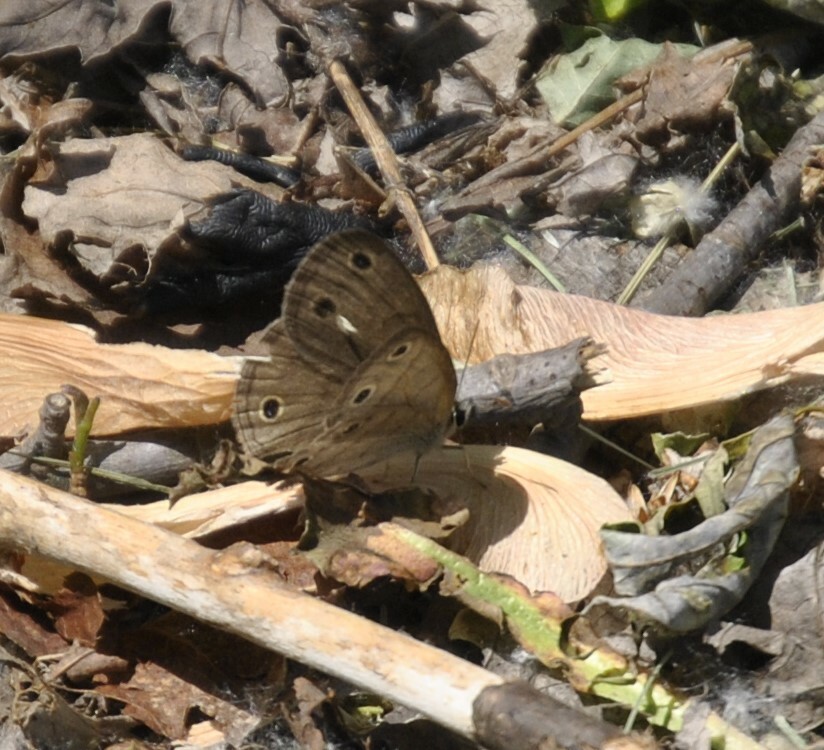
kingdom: Animalia
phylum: Arthropoda
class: Insecta
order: Lepidoptera
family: Nymphalidae
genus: Euptychia
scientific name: Euptychia cymela
